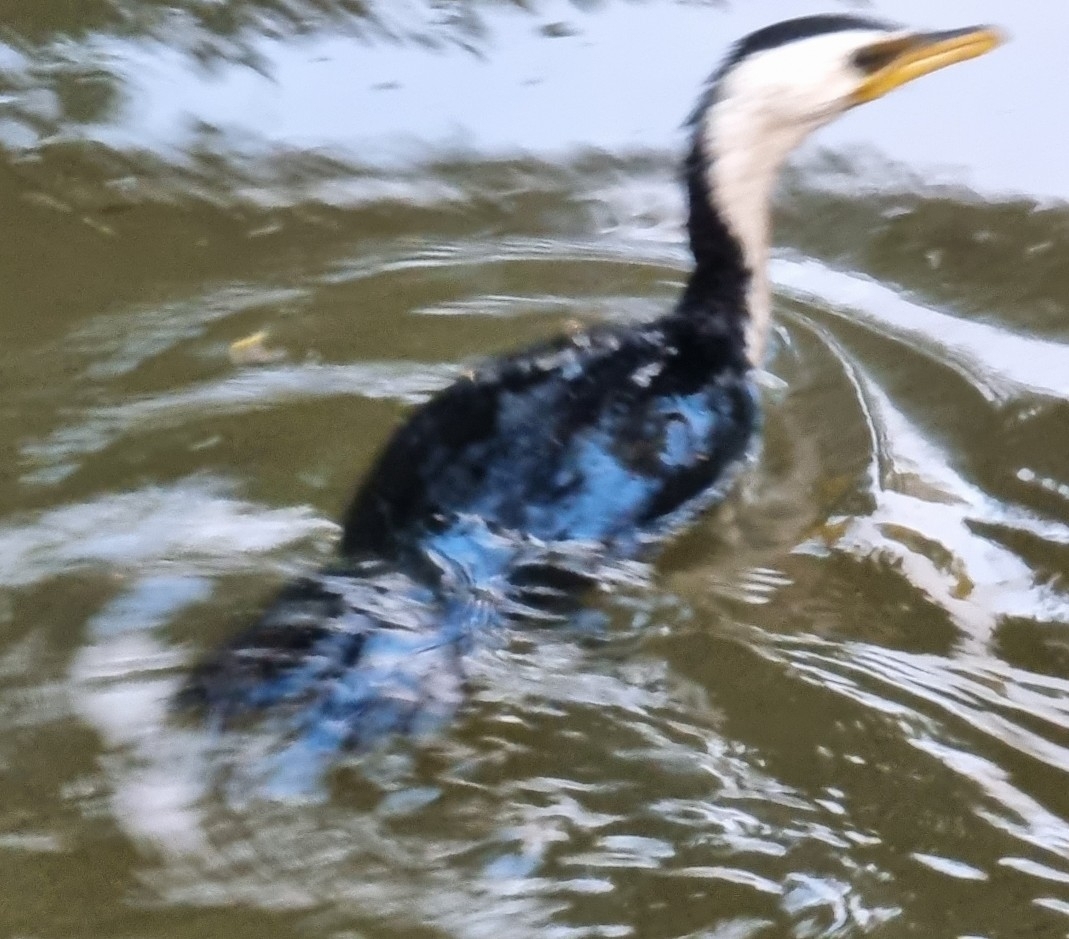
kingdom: Animalia
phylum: Chordata
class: Aves
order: Suliformes
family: Phalacrocoracidae
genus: Microcarbo
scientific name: Microcarbo melanoleucos
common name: Little pied cormorant
